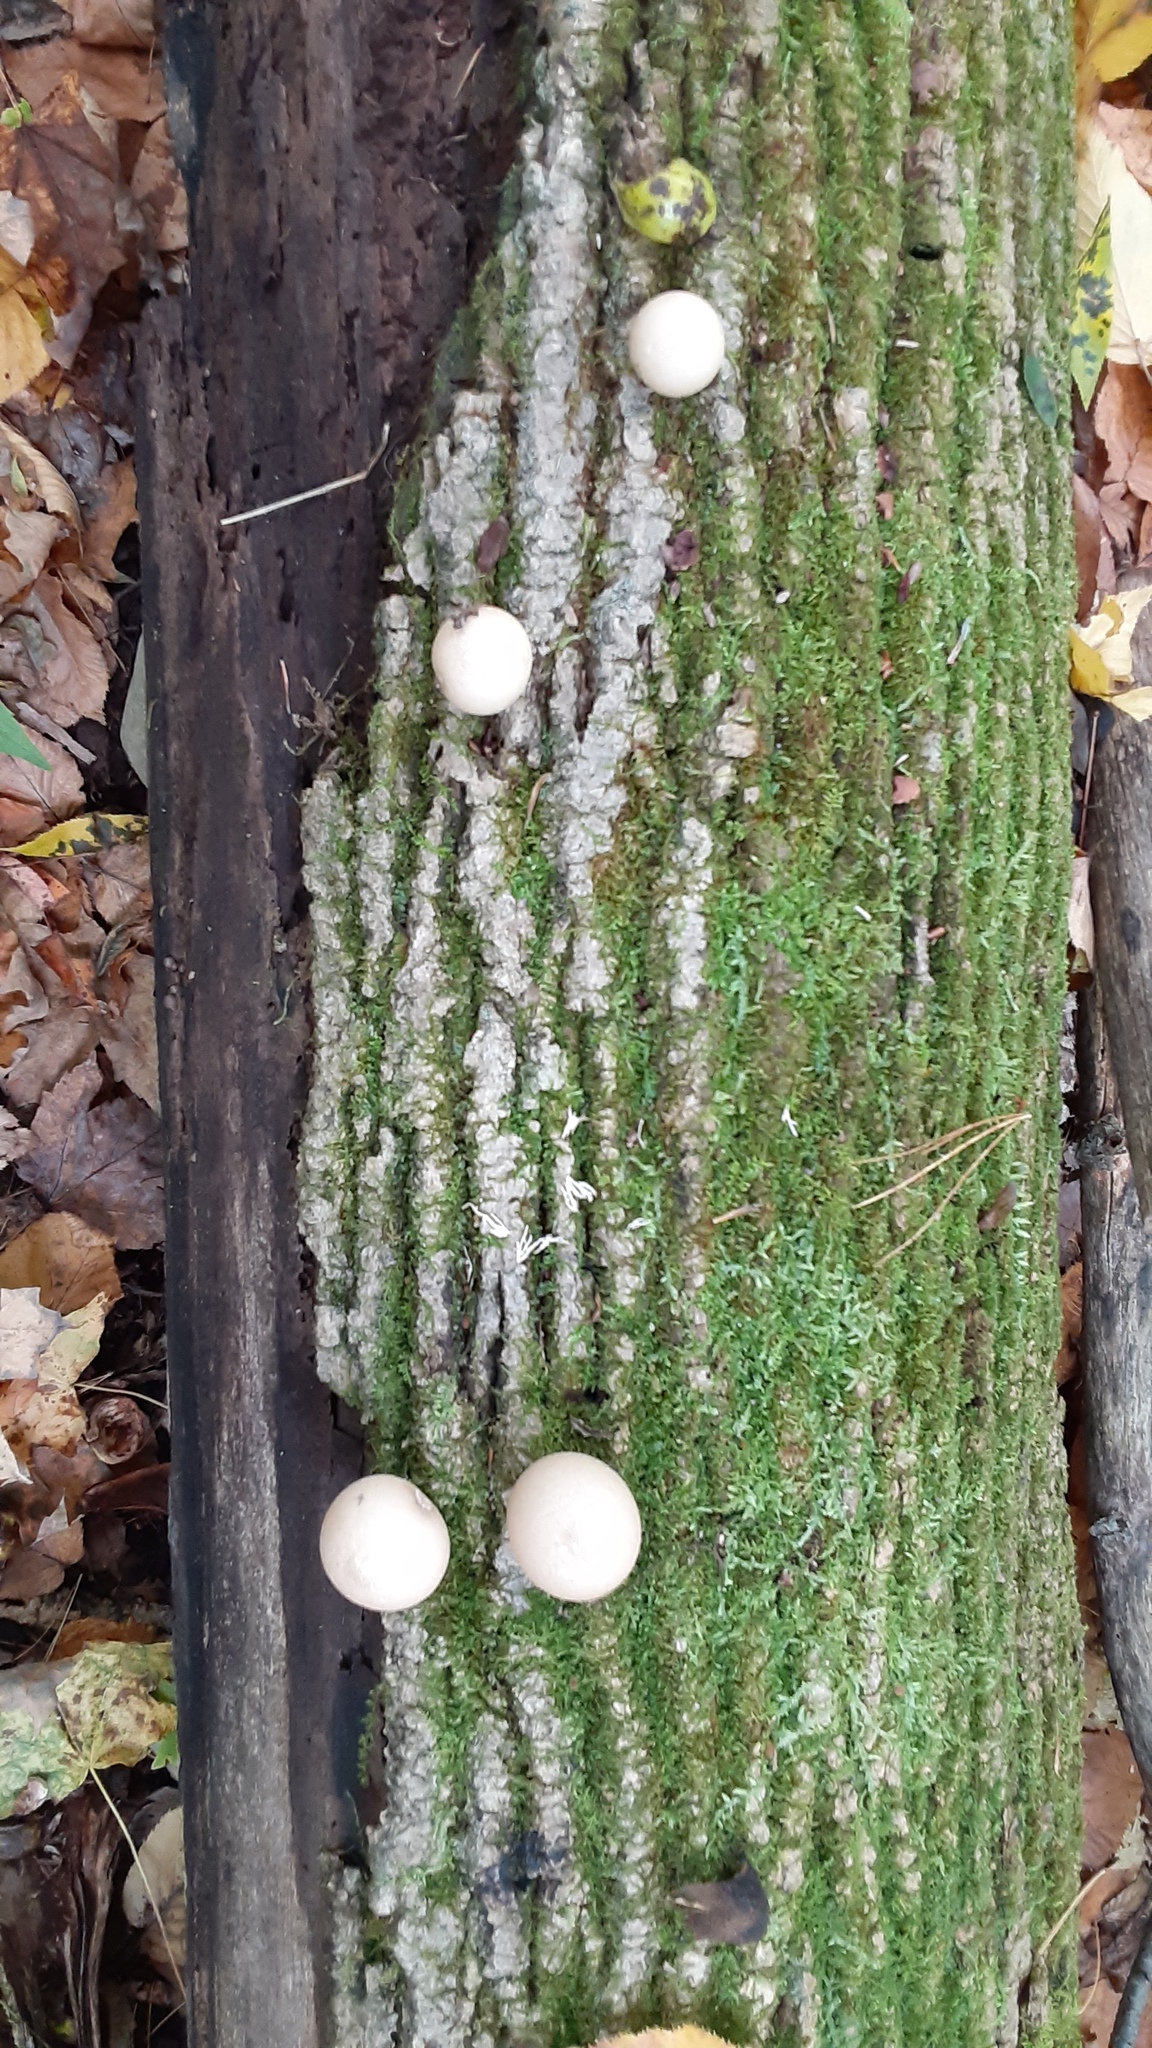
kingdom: Fungi
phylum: Basidiomycota
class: Agaricomycetes
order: Agaricales
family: Lycoperdaceae
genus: Apioperdon
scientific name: Apioperdon pyriforme
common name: Pear-shaped puffball
